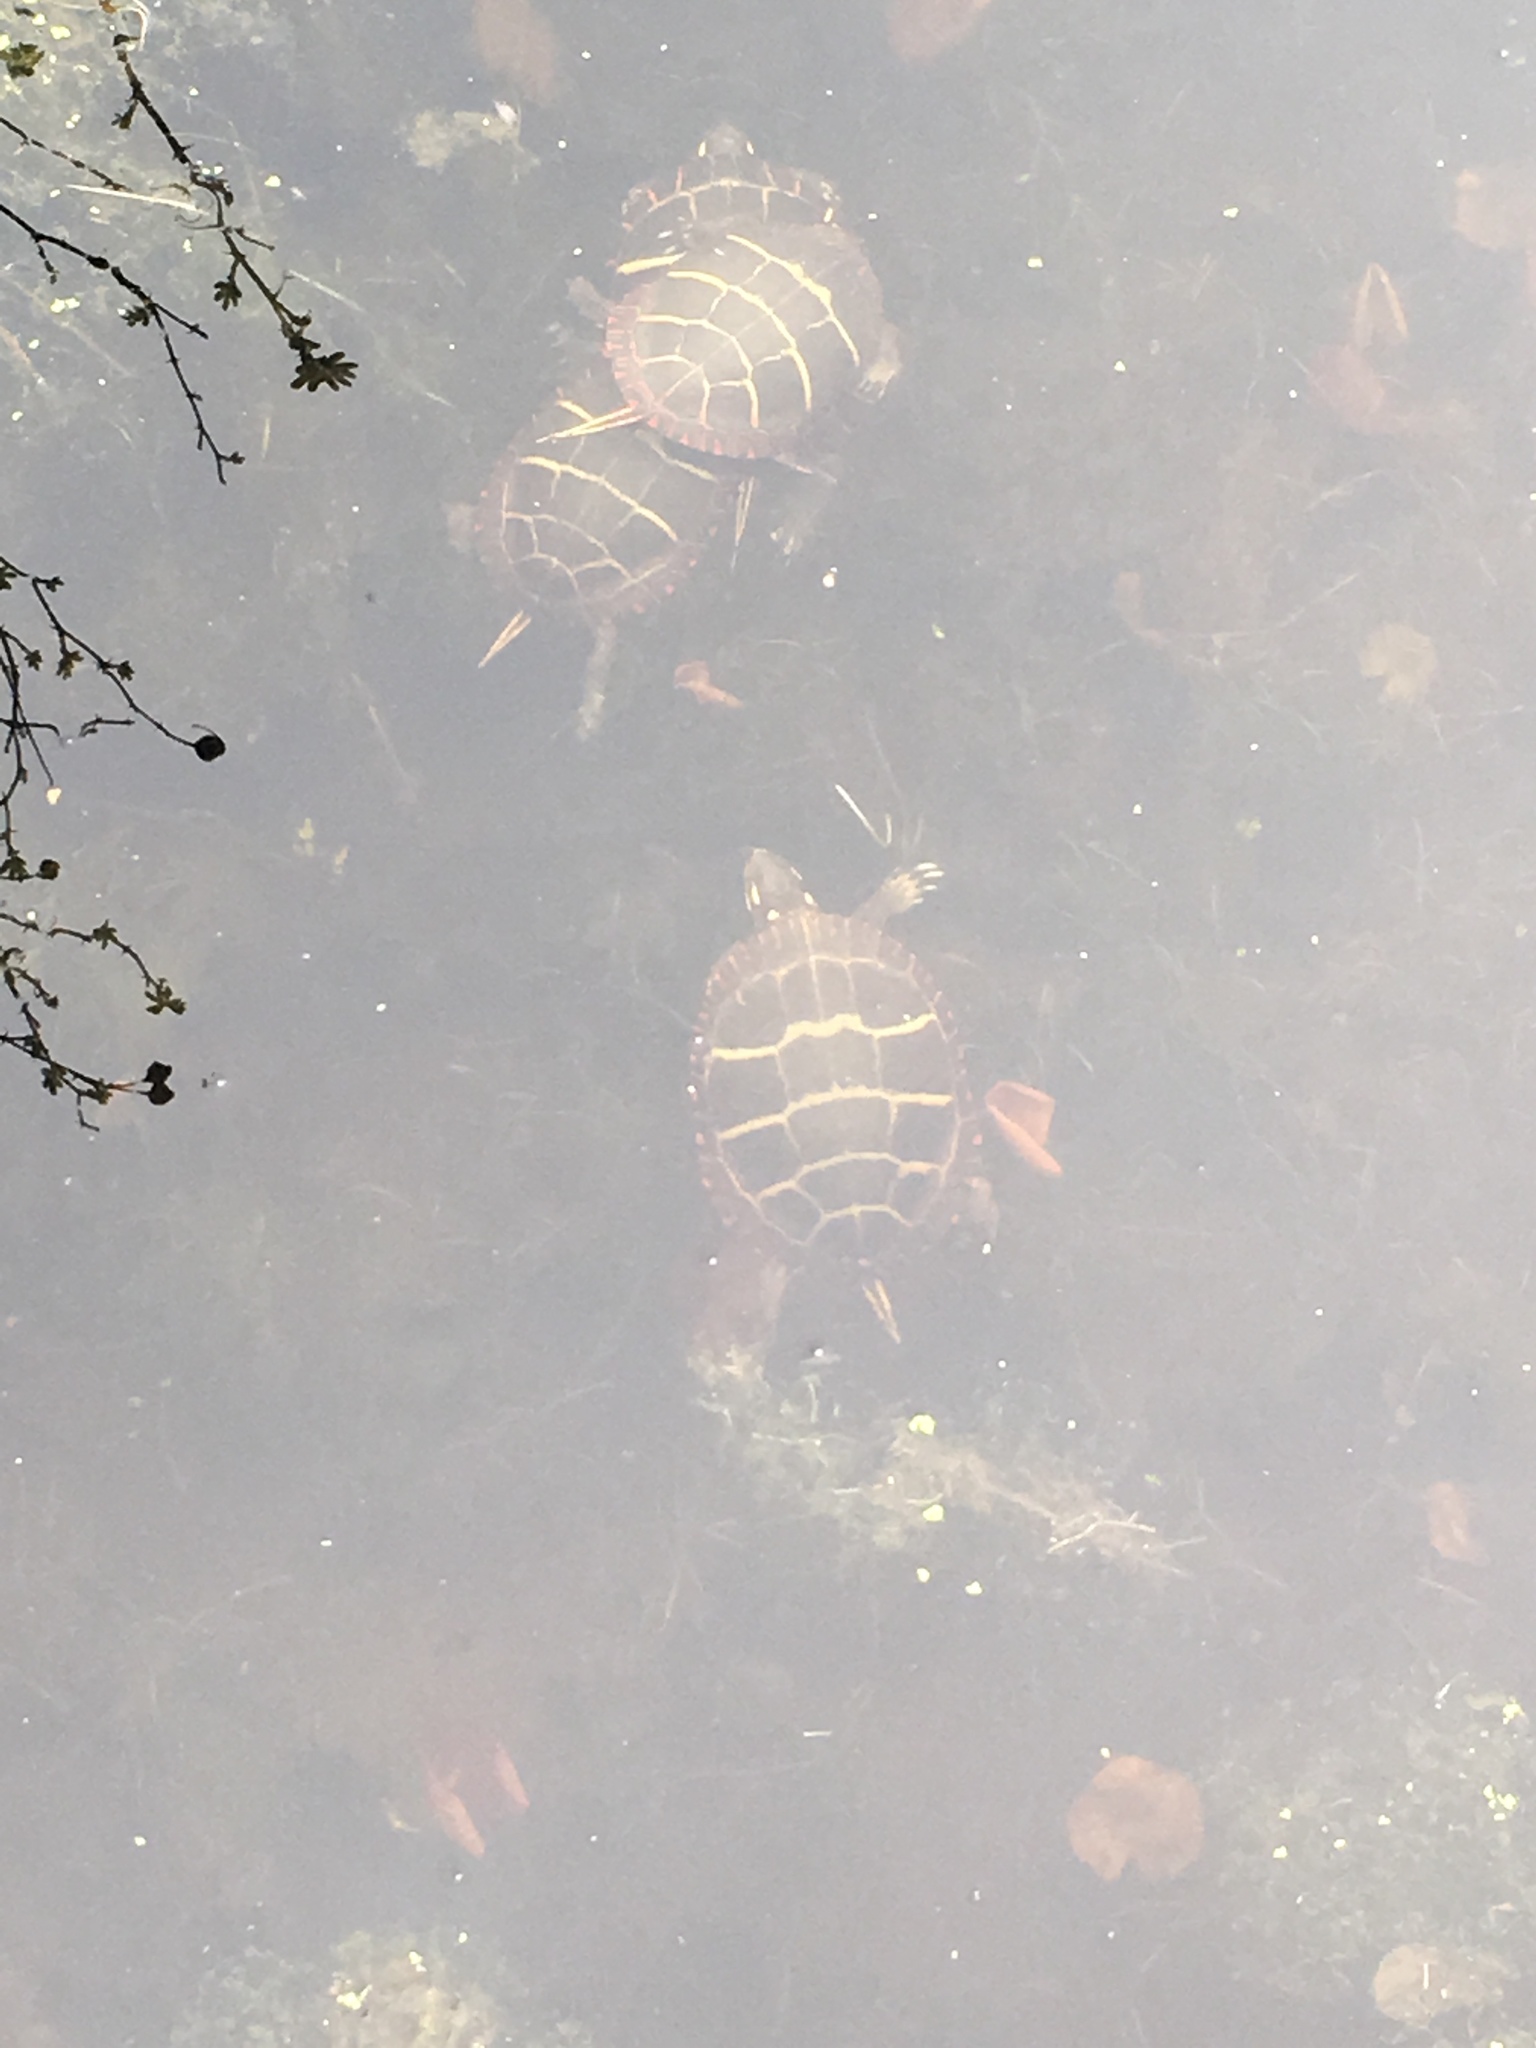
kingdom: Animalia
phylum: Chordata
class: Testudines
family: Emydidae
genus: Chrysemys
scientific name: Chrysemys picta
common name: Painted turtle
